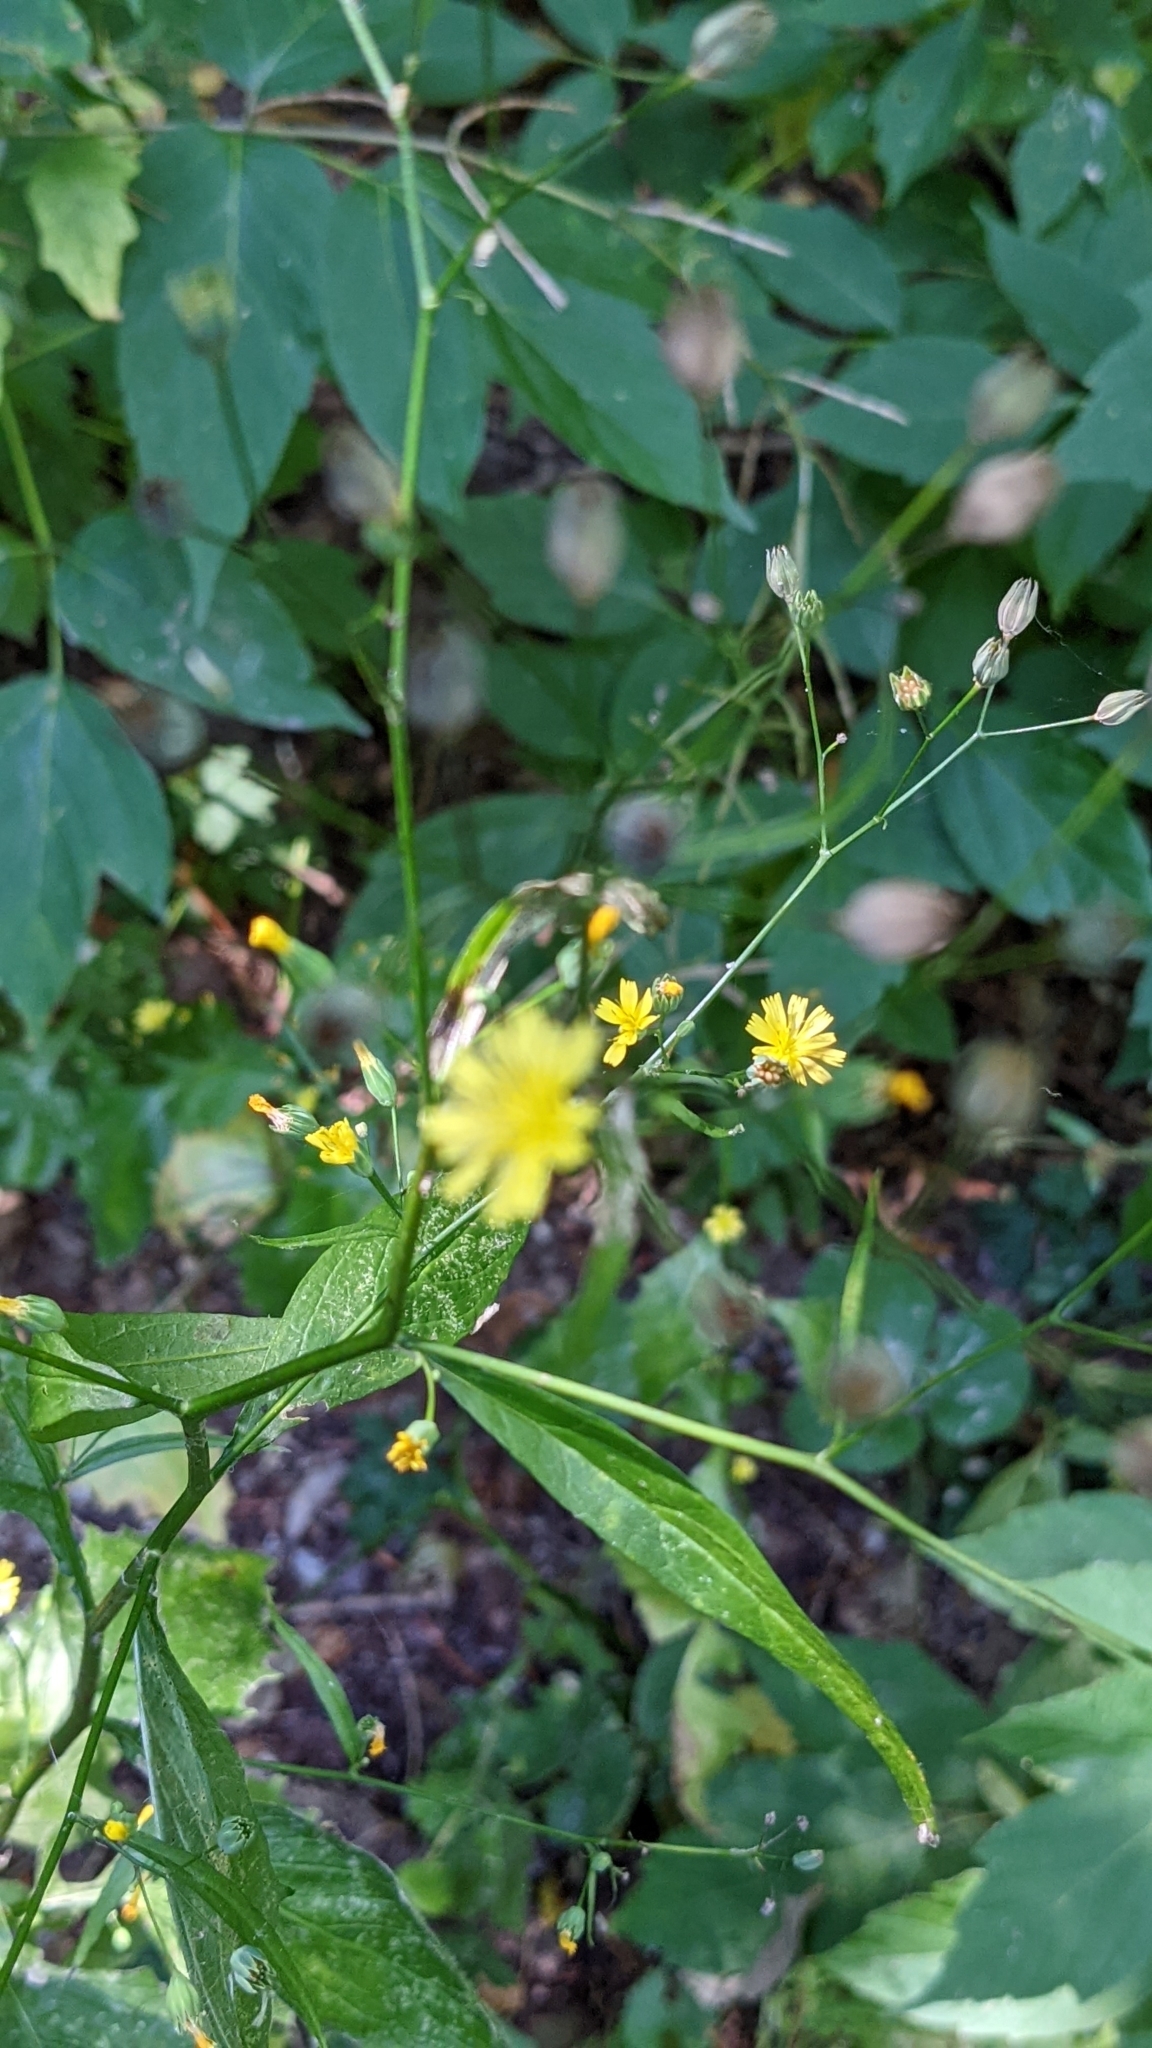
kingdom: Plantae
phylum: Tracheophyta
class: Magnoliopsida
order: Asterales
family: Asteraceae
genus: Lapsana
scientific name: Lapsana communis
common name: Nipplewort
